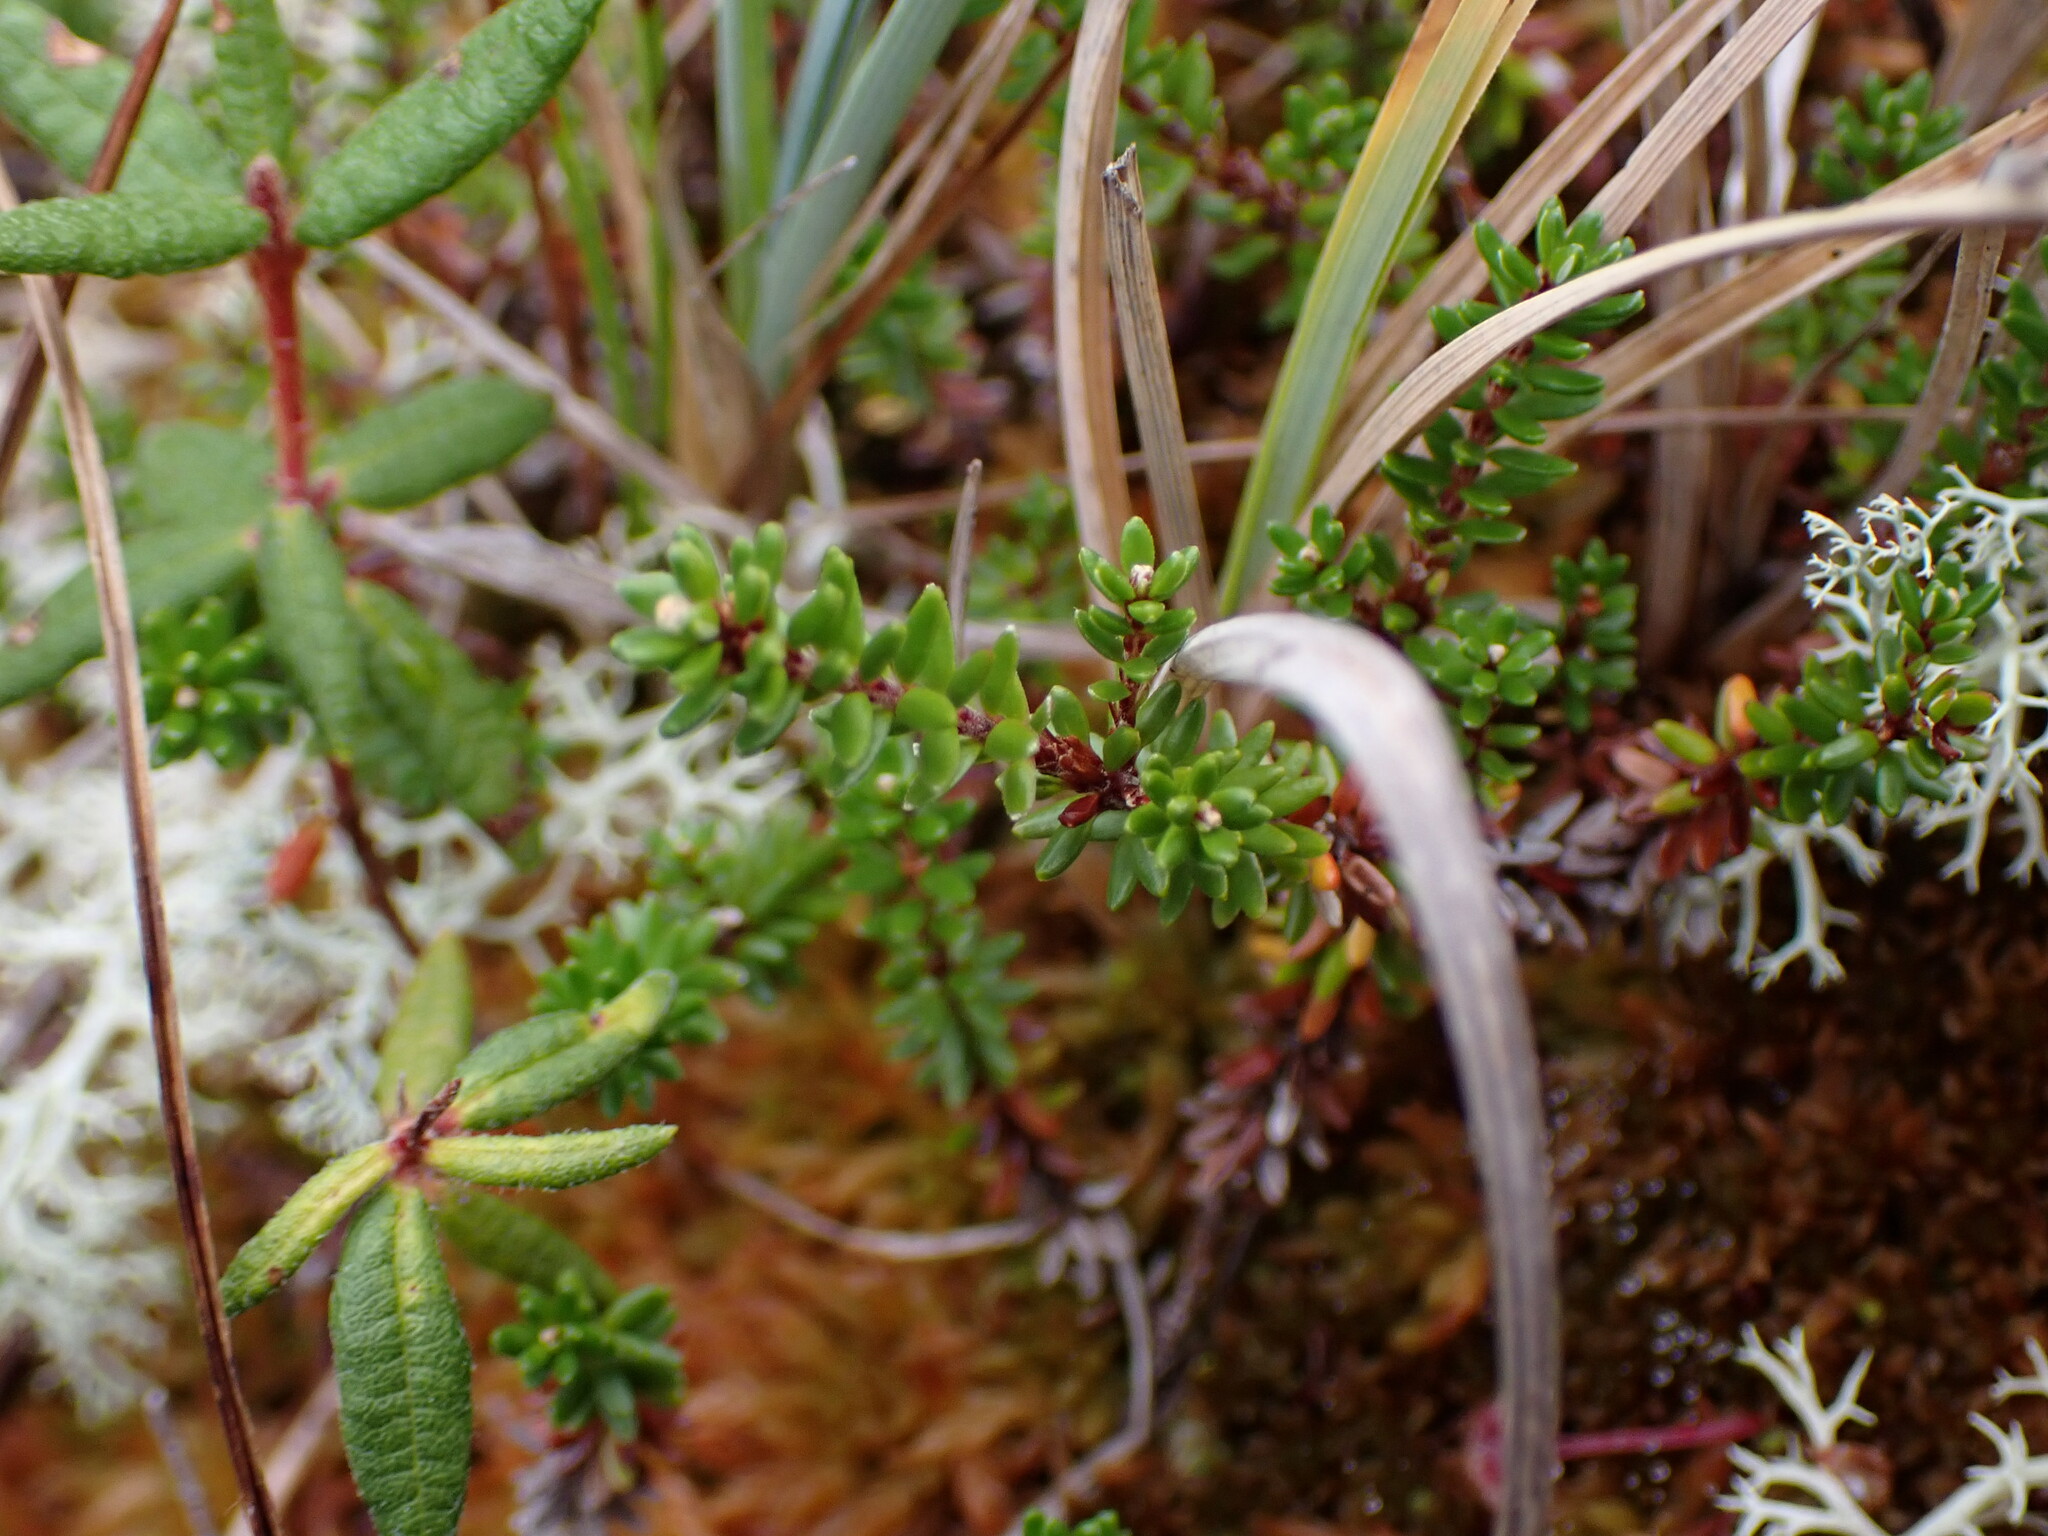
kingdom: Plantae
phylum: Tracheophyta
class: Magnoliopsida
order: Ericales
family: Ericaceae
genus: Empetrum
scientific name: Empetrum nigrum
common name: Black crowberry
